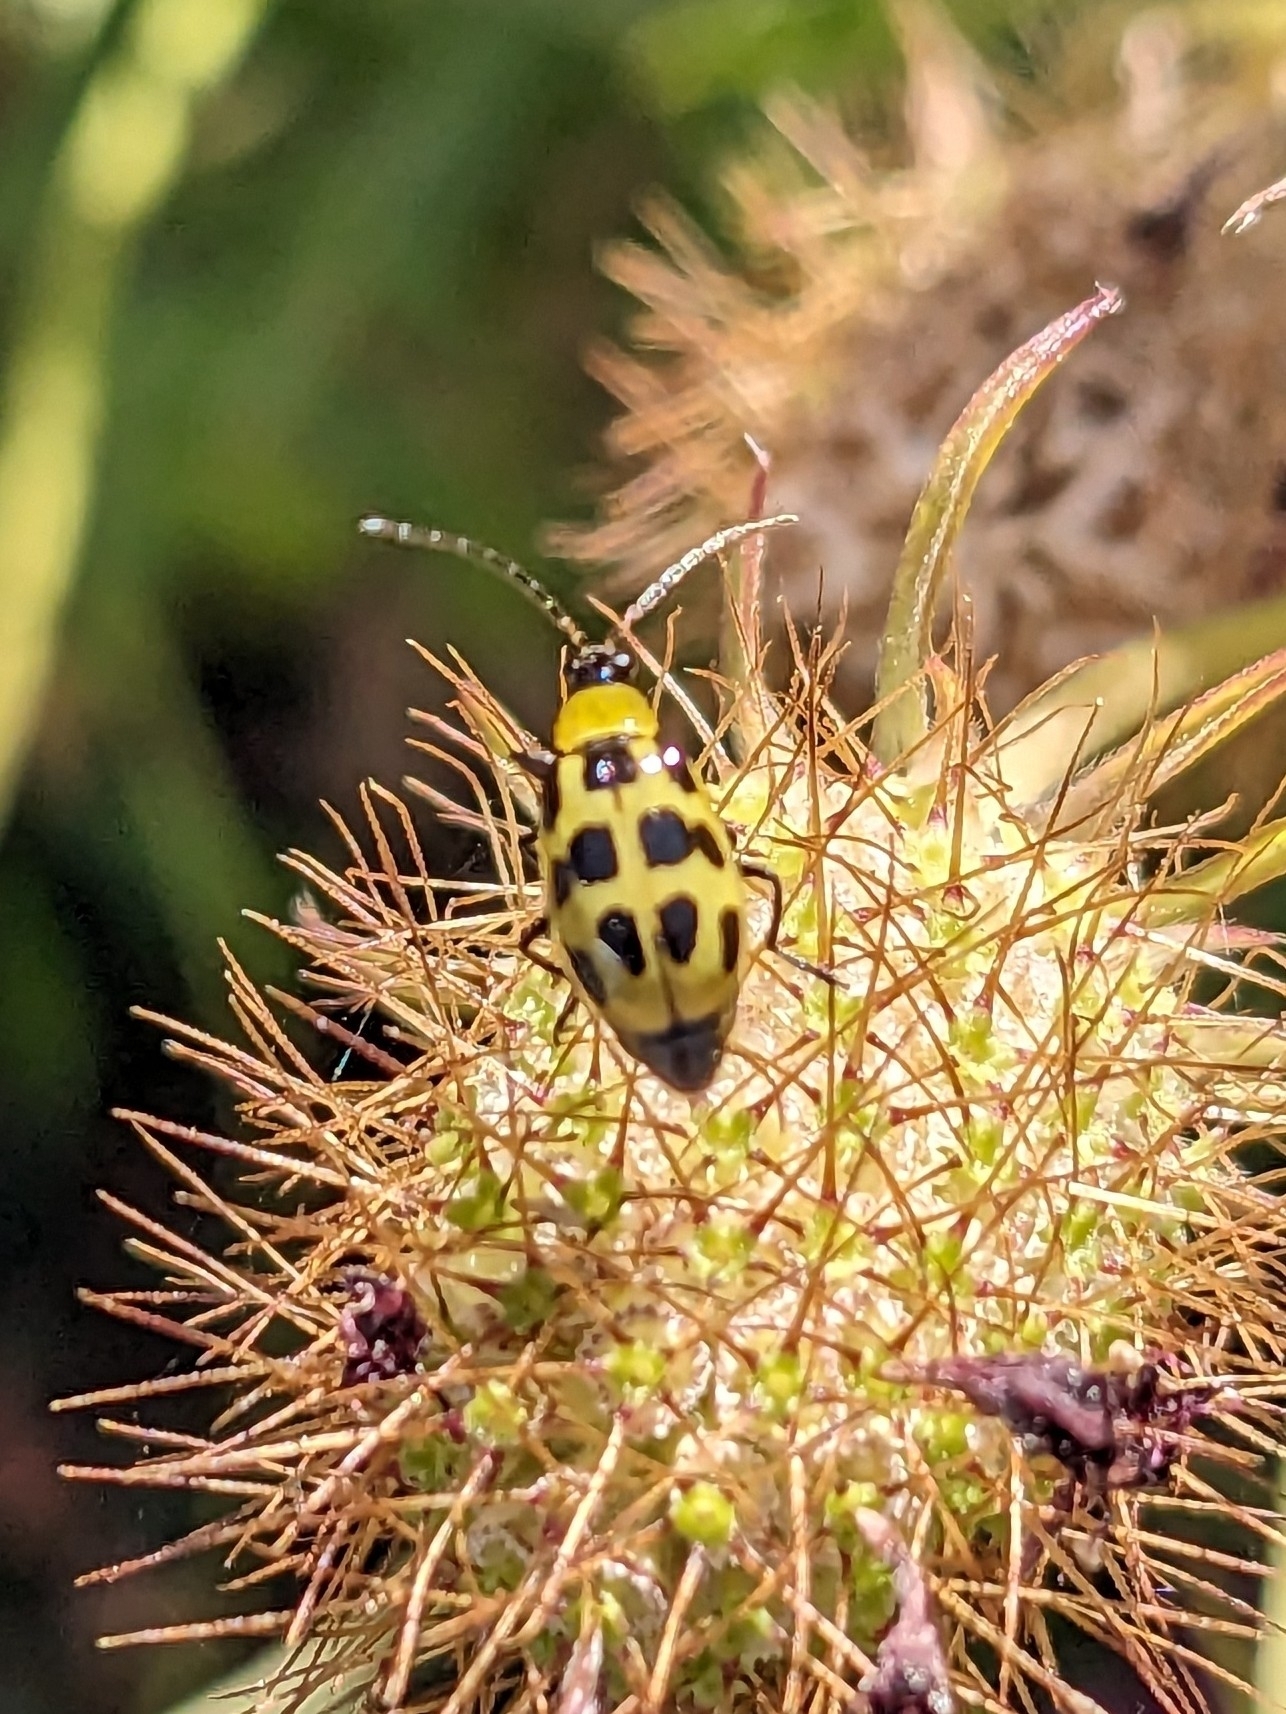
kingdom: Animalia
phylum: Arthropoda
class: Insecta
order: Coleoptera
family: Chrysomelidae
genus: Diabrotica
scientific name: Diabrotica undecimpunctata
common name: Spotted cucumber beetle
